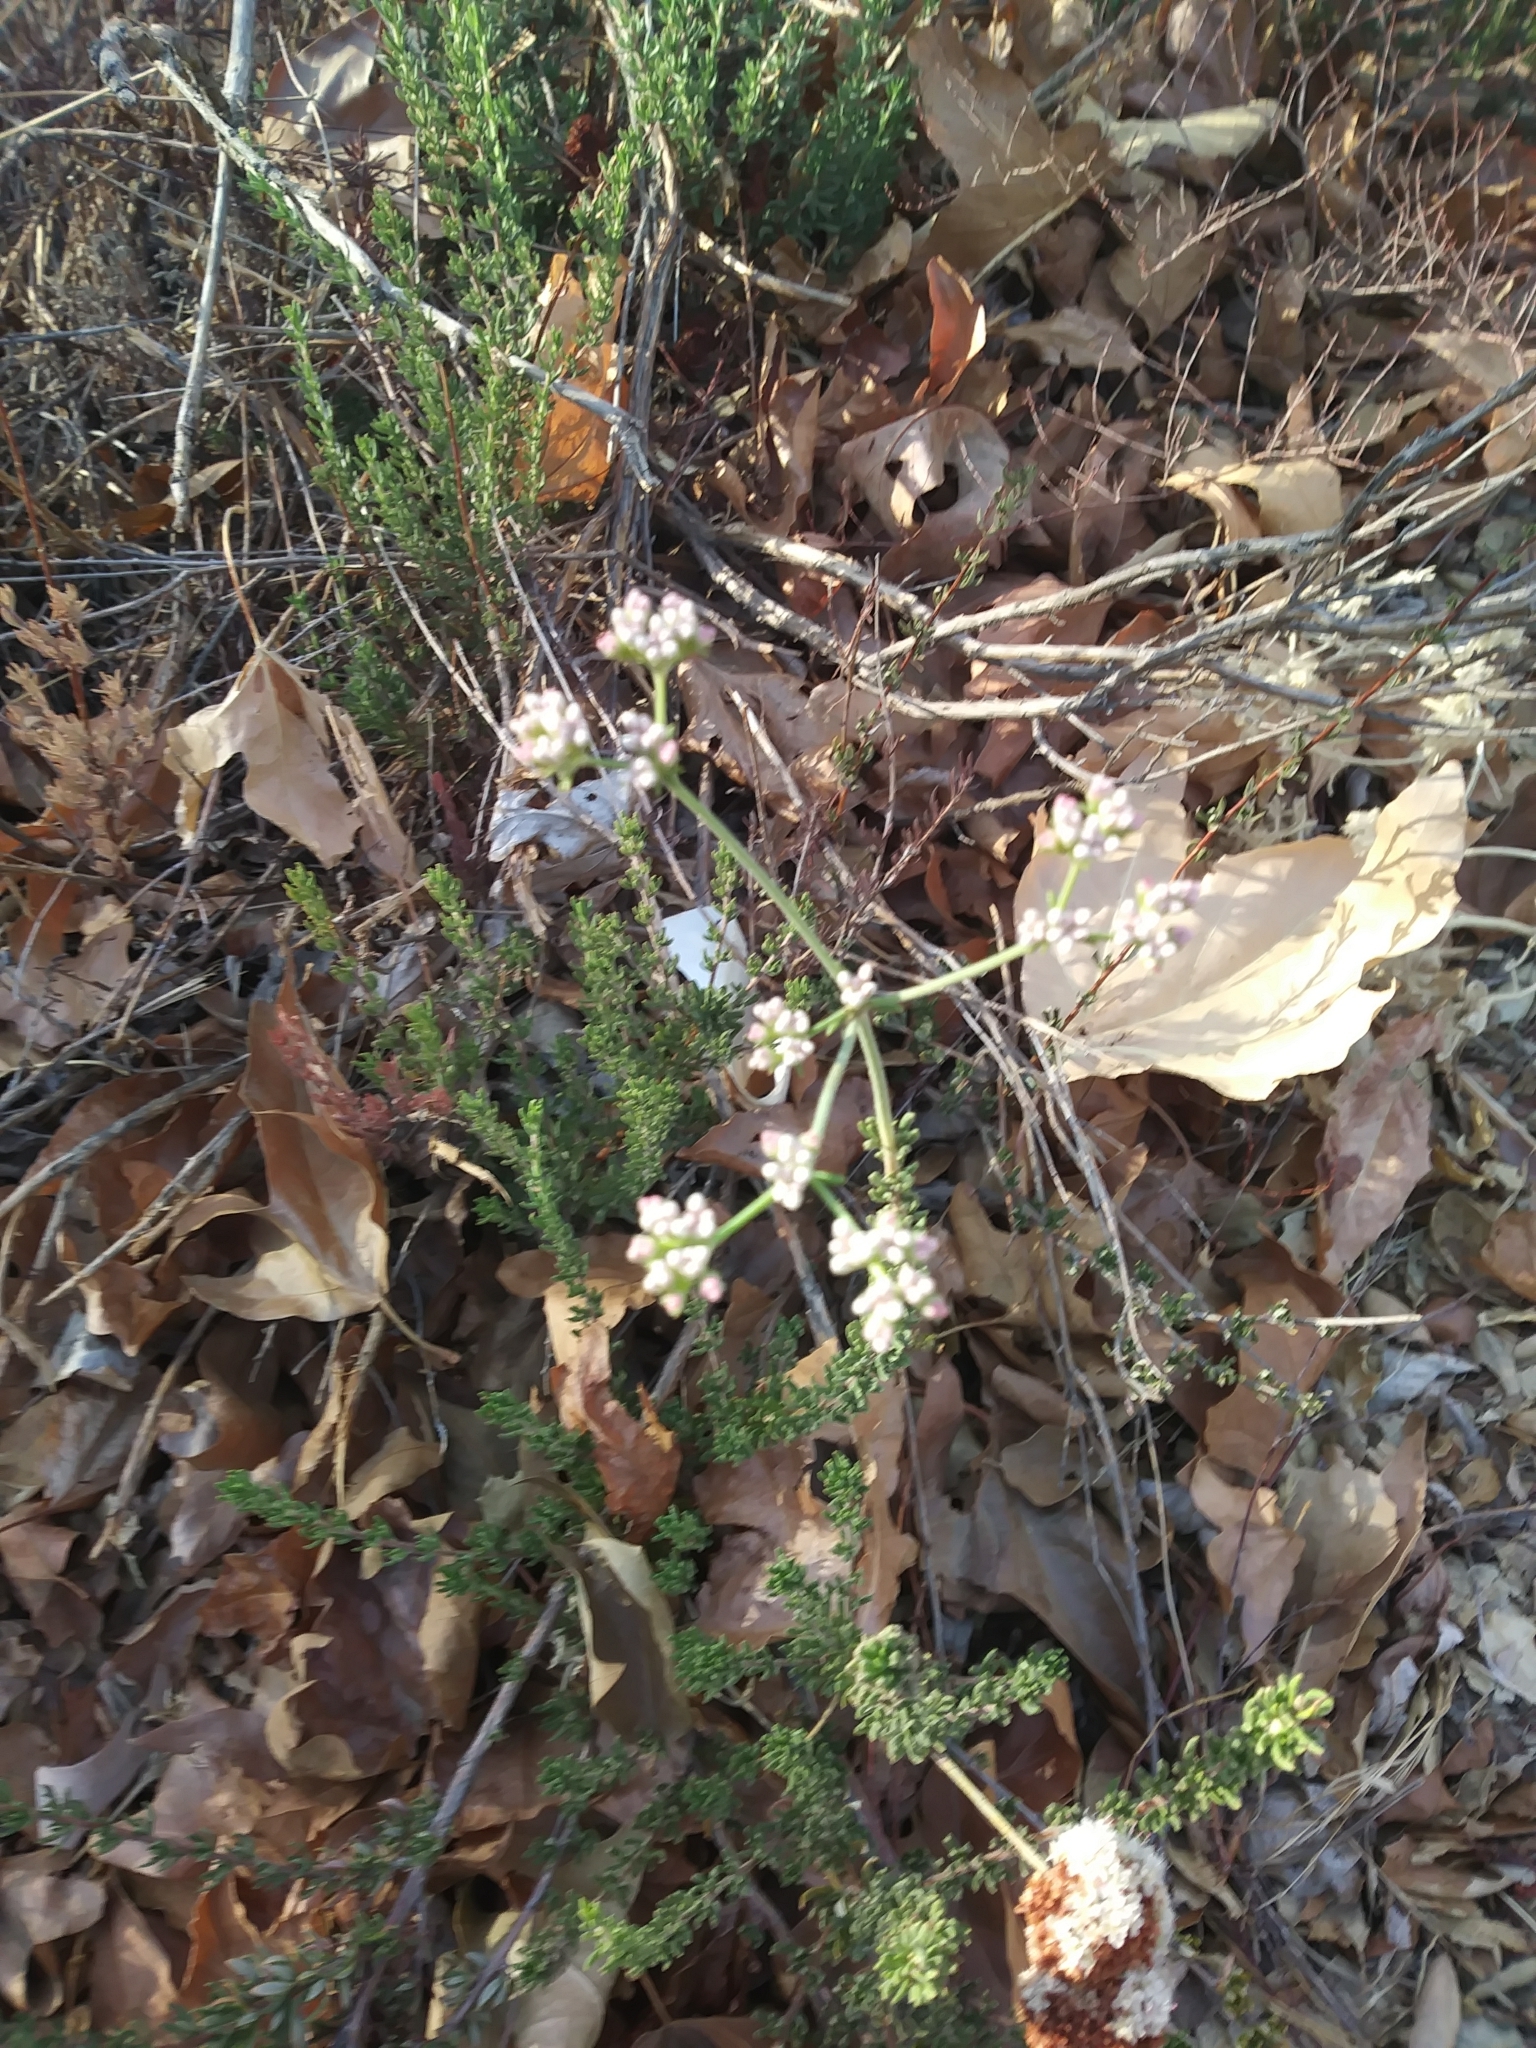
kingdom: Plantae
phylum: Tracheophyta
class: Magnoliopsida
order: Caryophyllales
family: Polygonaceae
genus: Eriogonum
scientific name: Eriogonum fasciculatum
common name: California wild buckwheat
